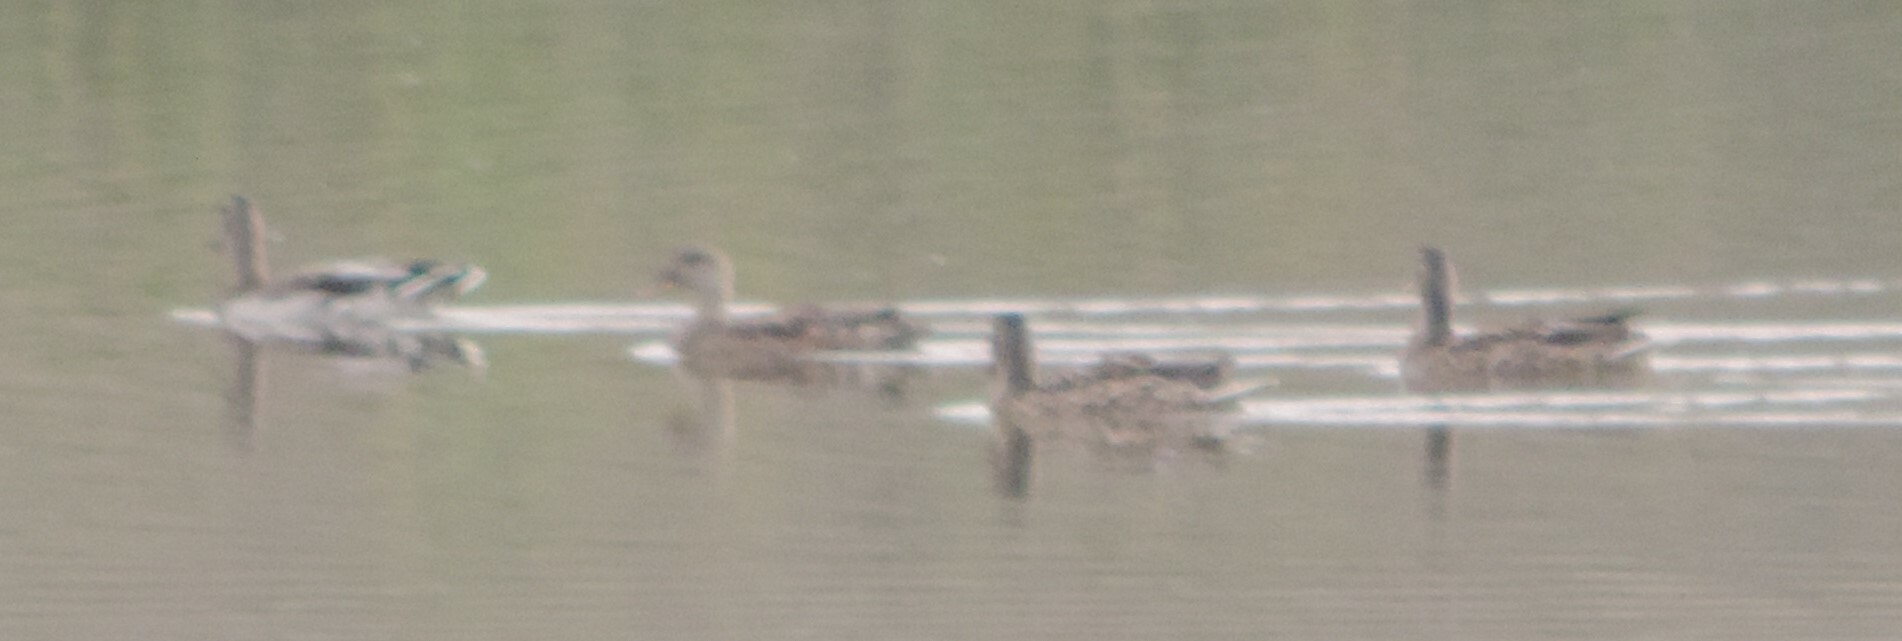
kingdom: Animalia
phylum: Chordata
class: Aves
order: Anseriformes
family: Anatidae
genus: Anas
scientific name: Anas platyrhynchos
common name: Mallard
